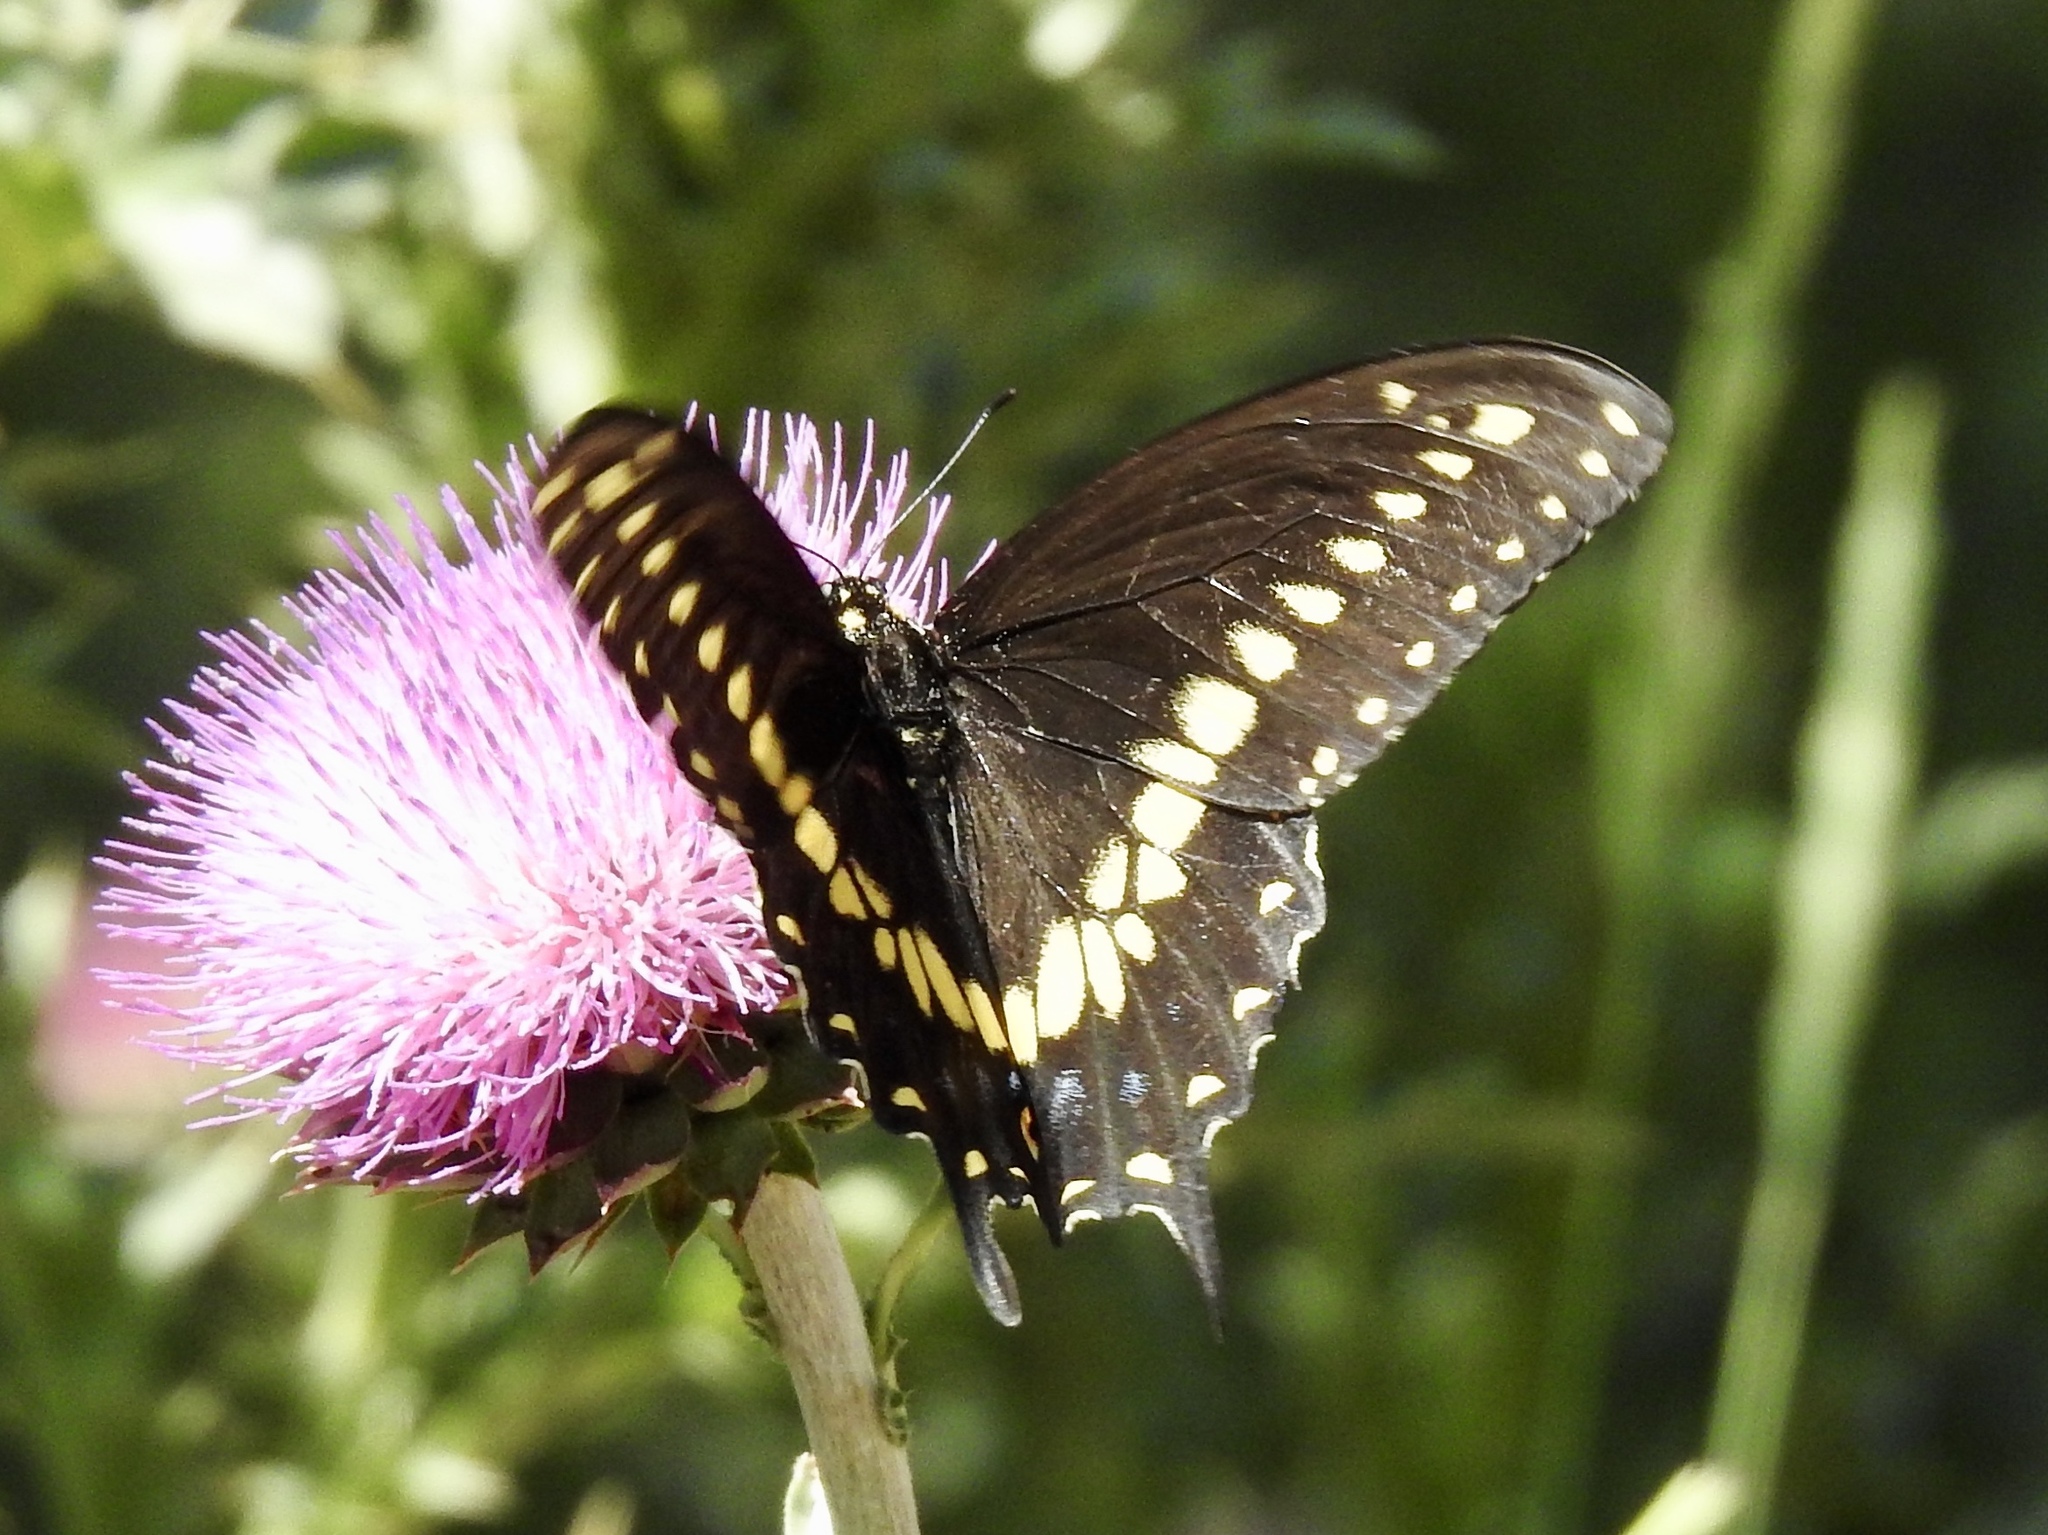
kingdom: Animalia
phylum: Arthropoda
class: Insecta
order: Lepidoptera
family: Papilionidae
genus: Papilio
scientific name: Papilio polyxenes
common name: Black swallowtail
